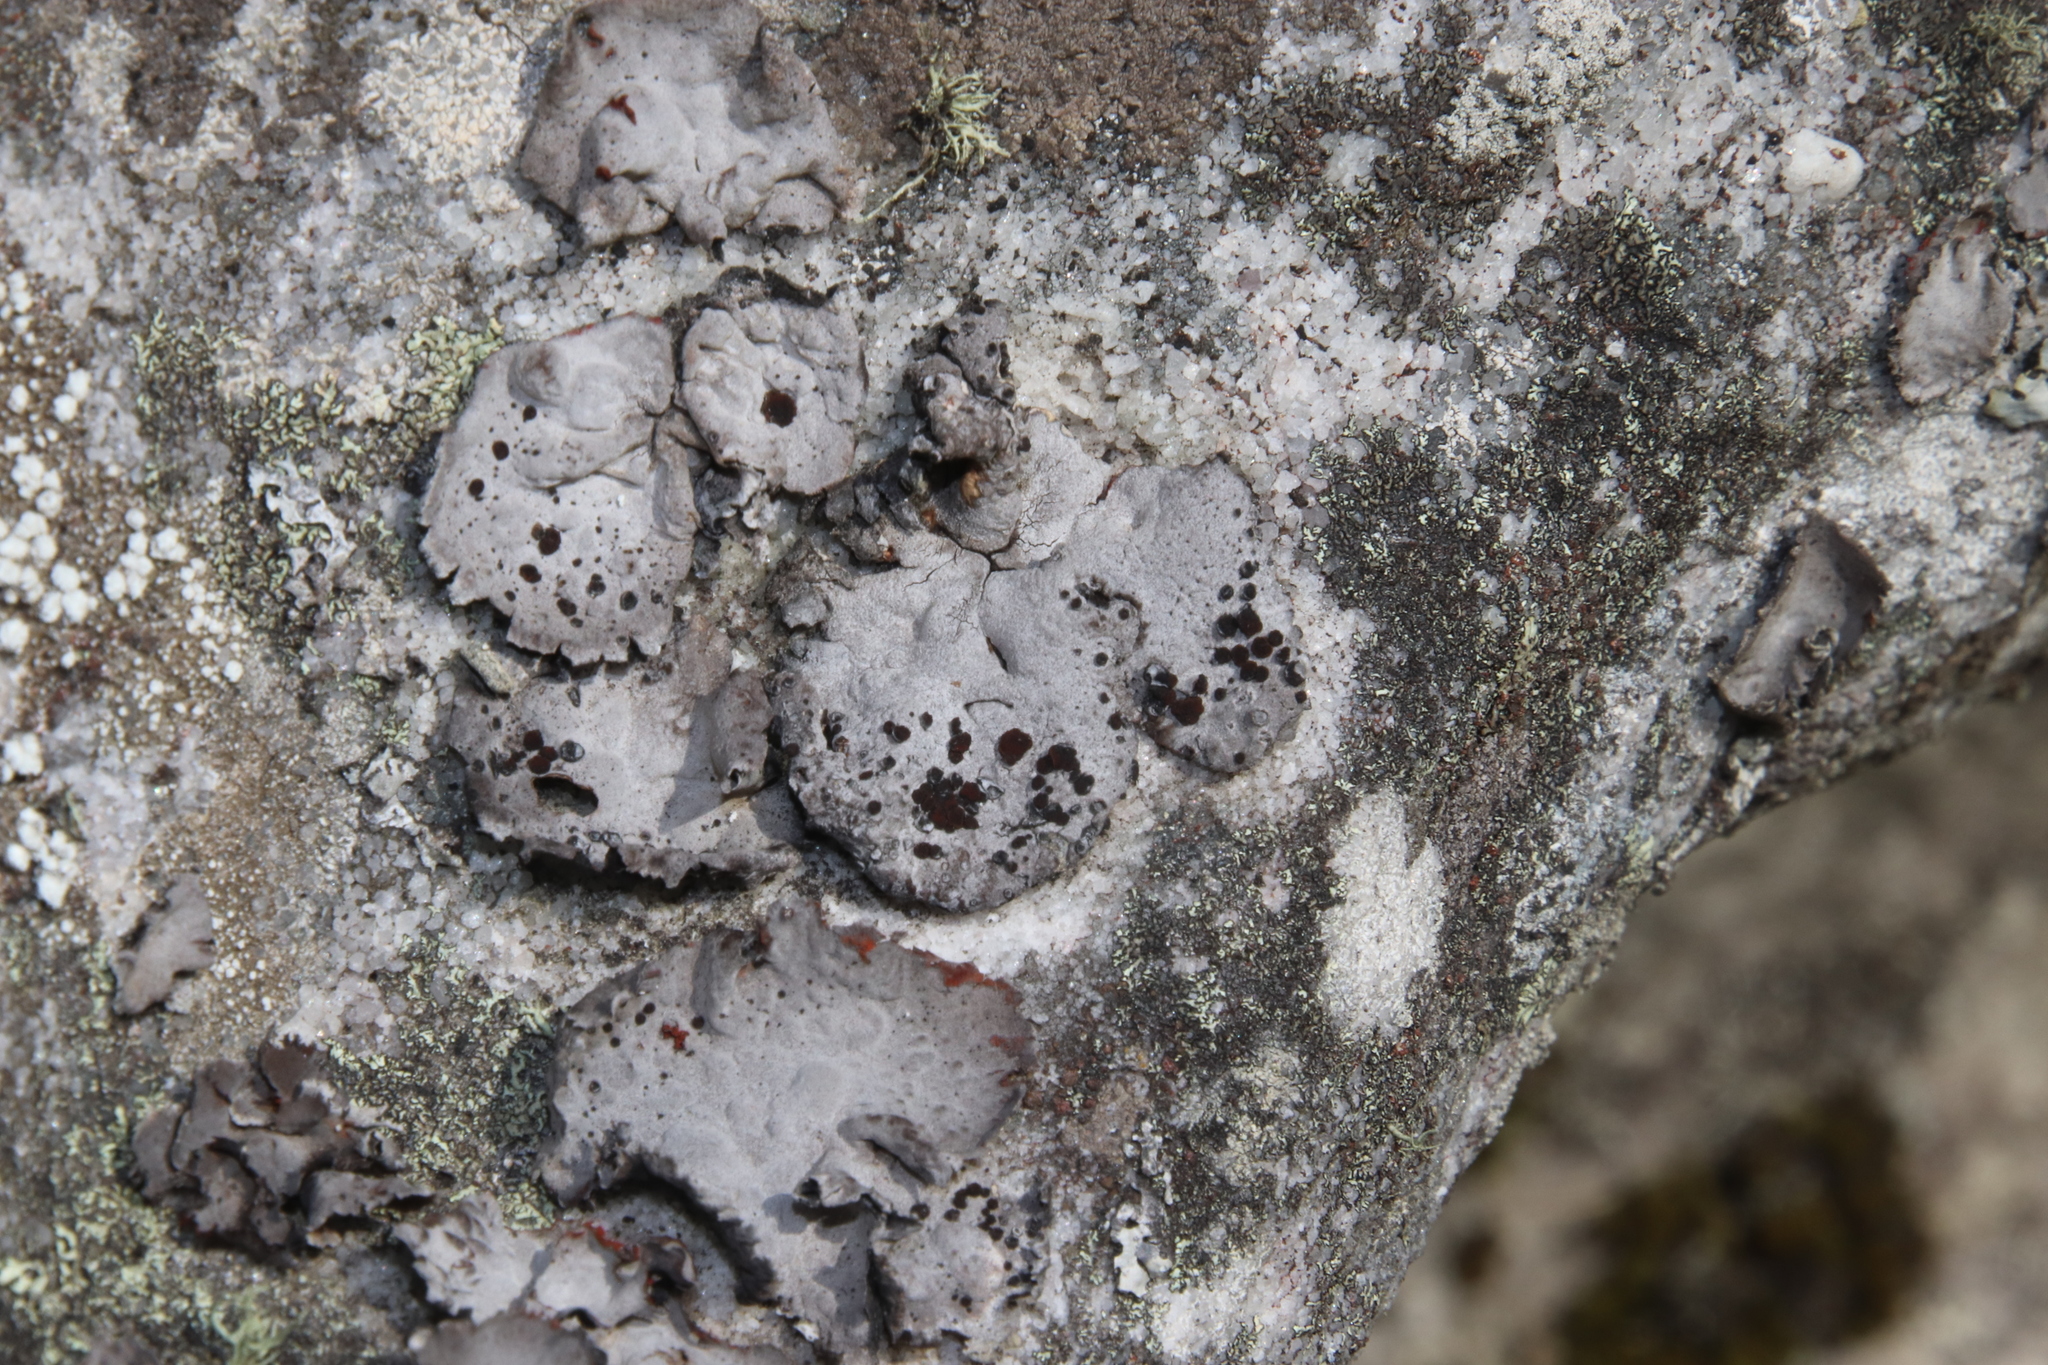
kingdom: Fungi
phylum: Ascomycota
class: Lecanoromycetes
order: Umbilicariales
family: Umbilicariaceae
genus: Lasallia
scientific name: Lasallia papulosa
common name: Common toadskin lichen
